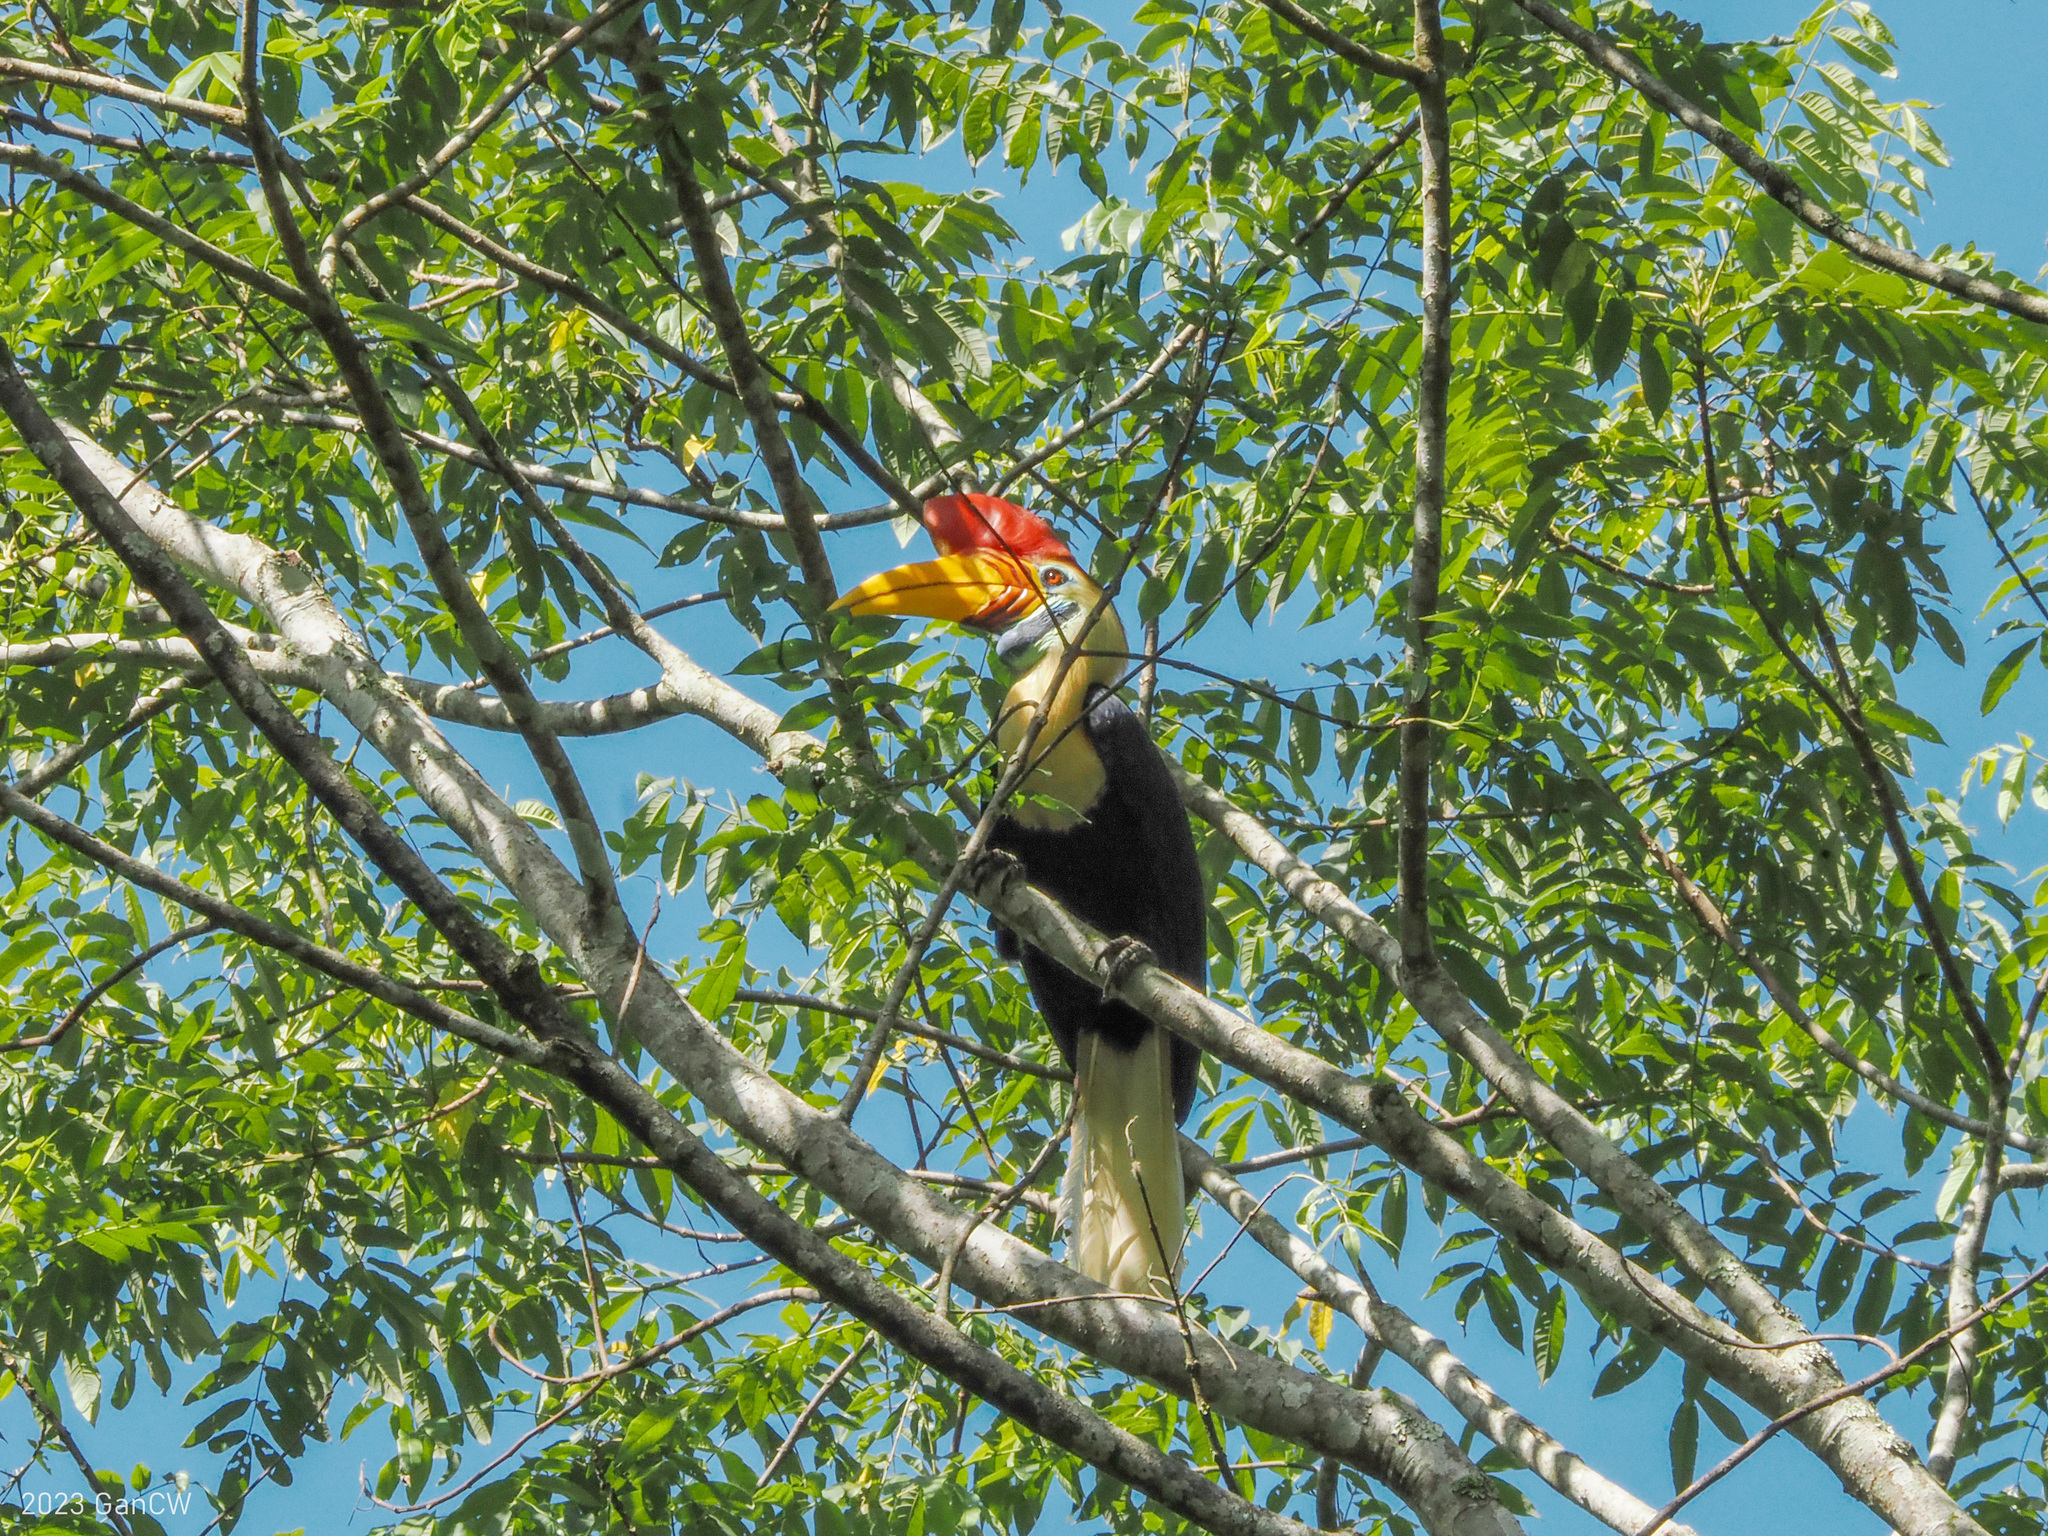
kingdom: Animalia
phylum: Chordata
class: Aves
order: Bucerotiformes
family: Bucerotidae
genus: Rhyticeros
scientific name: Rhyticeros cassidix
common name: Knobbed hornbill
